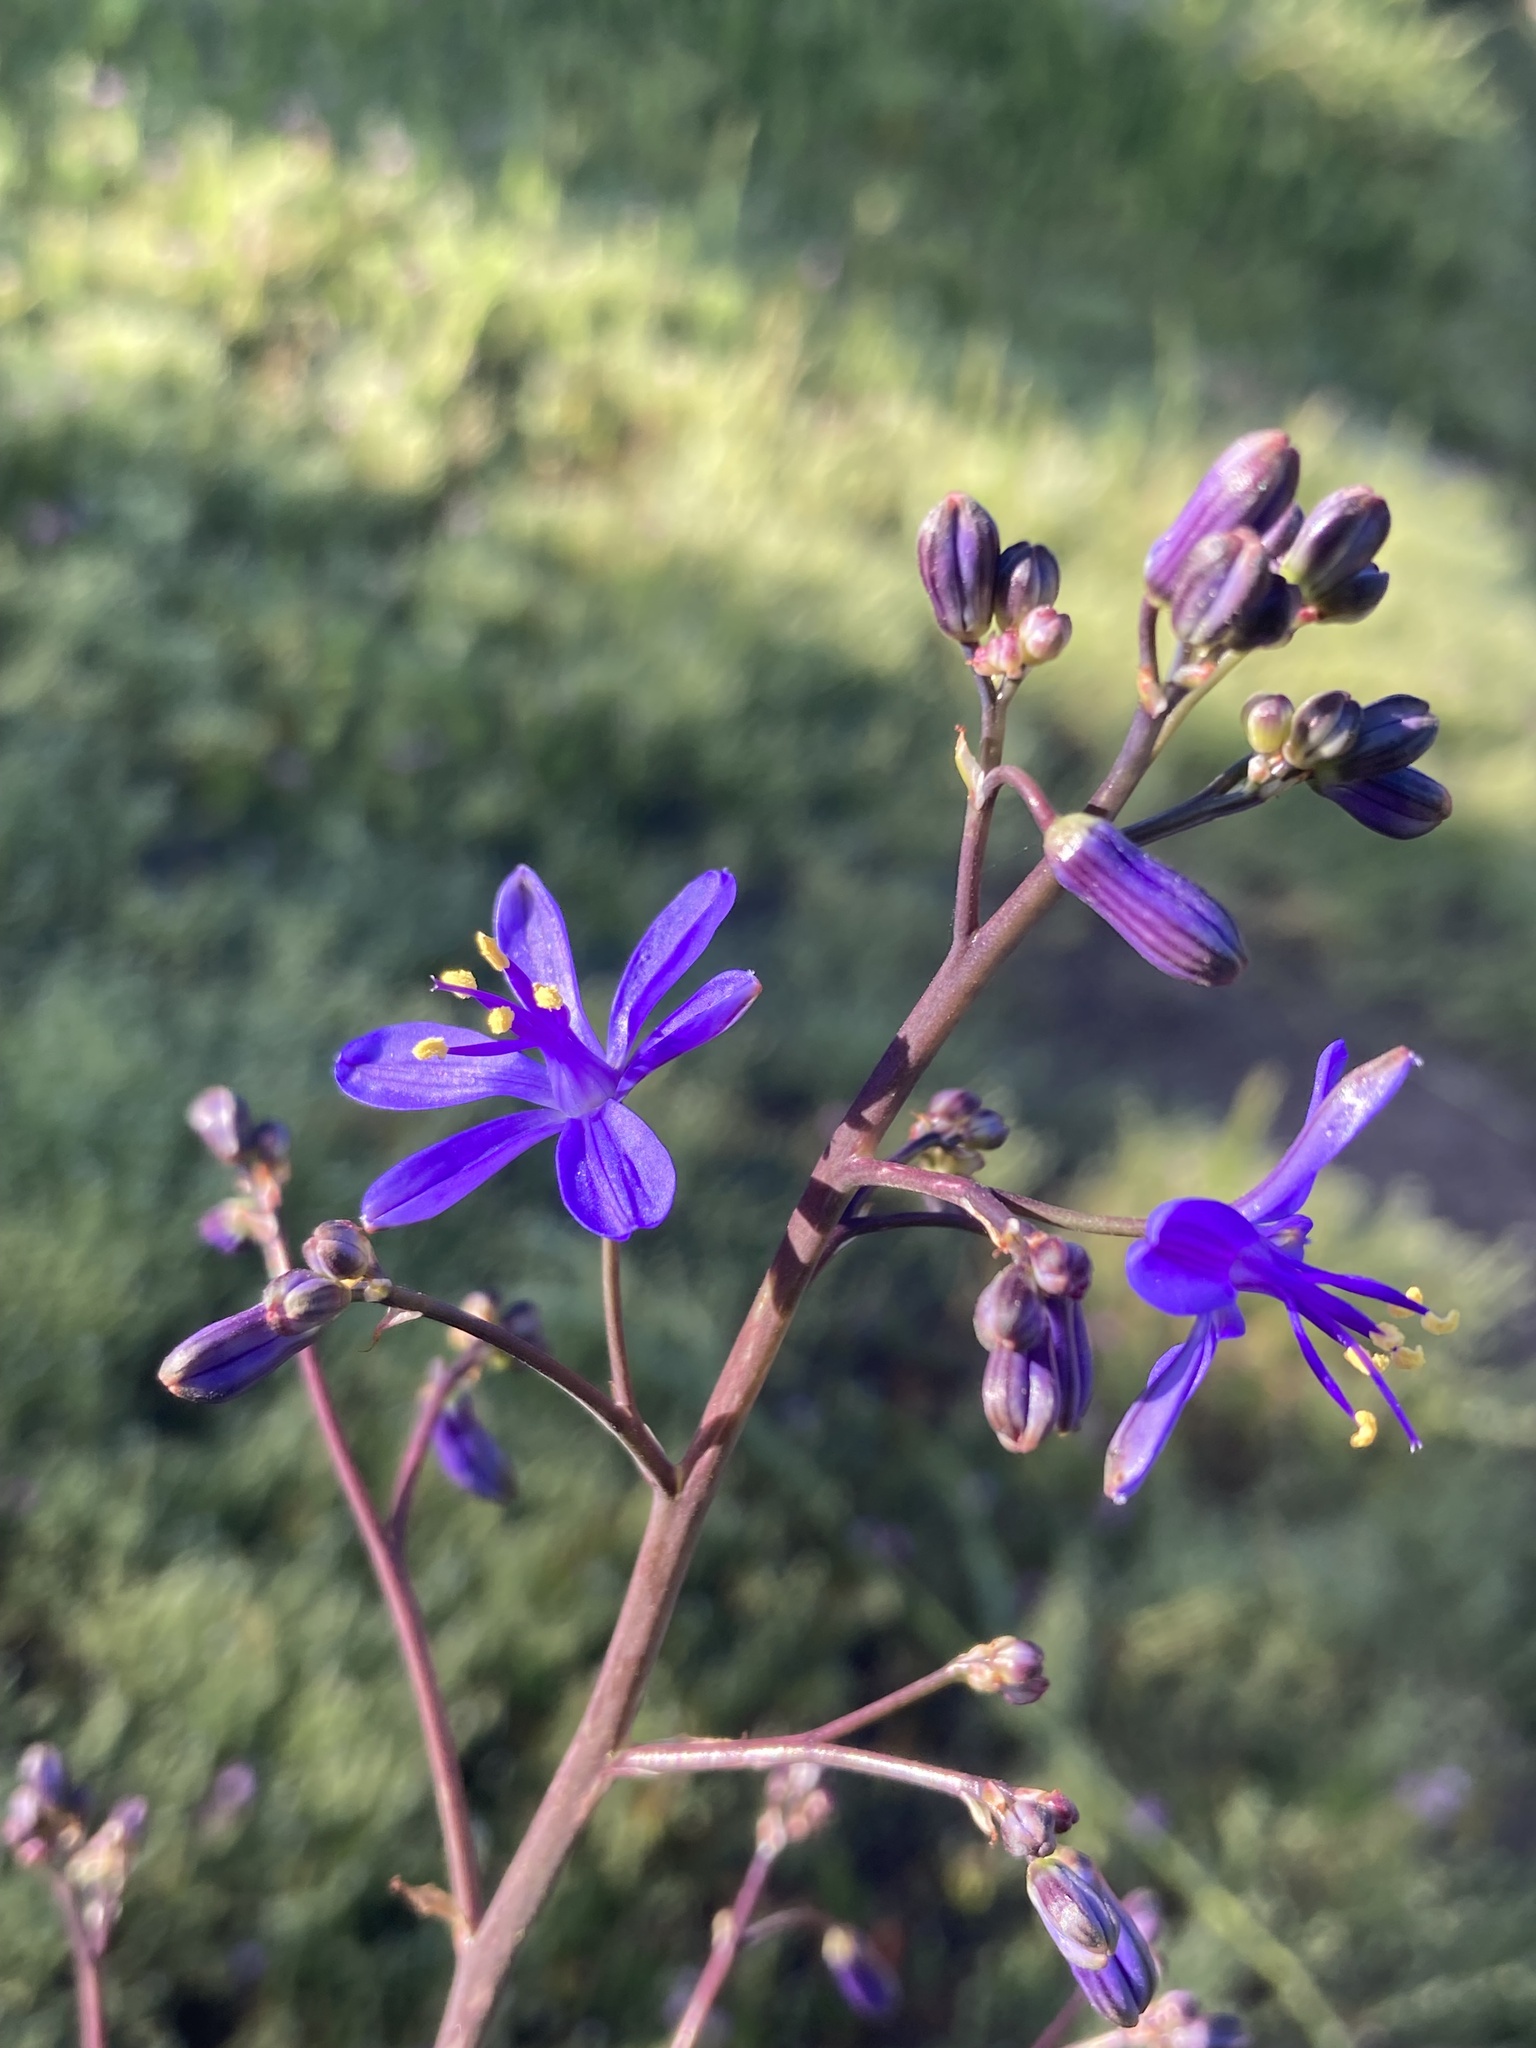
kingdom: Plantae
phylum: Tracheophyta
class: Liliopsida
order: Asparagales
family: Asphodelaceae
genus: Pasithea
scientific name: Pasithea caerulea
